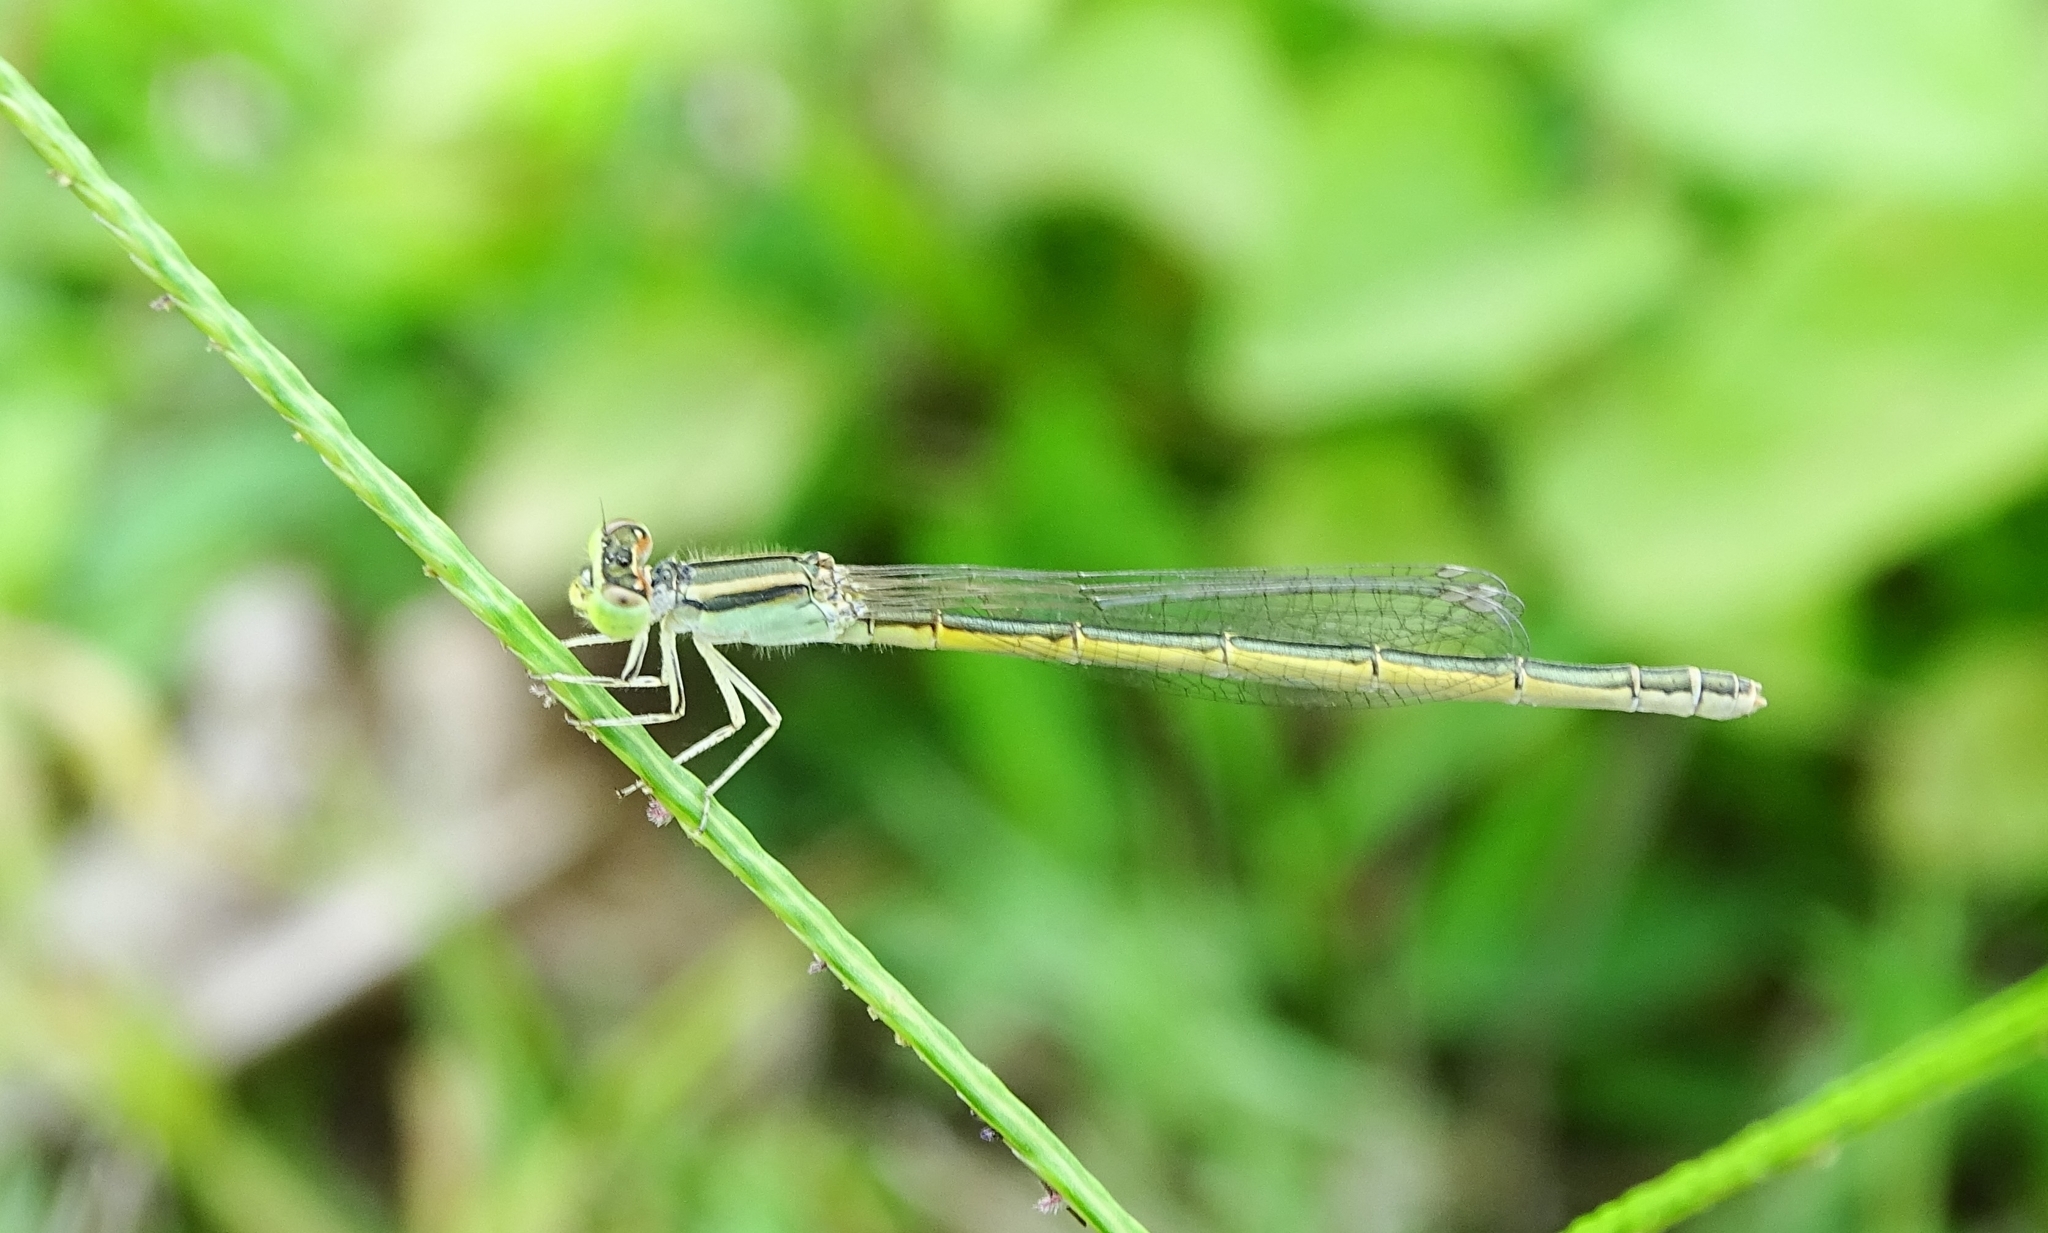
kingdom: Animalia
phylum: Arthropoda
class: Insecta
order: Odonata
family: Coenagrionidae
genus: Ischnura
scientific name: Ischnura rubilio
